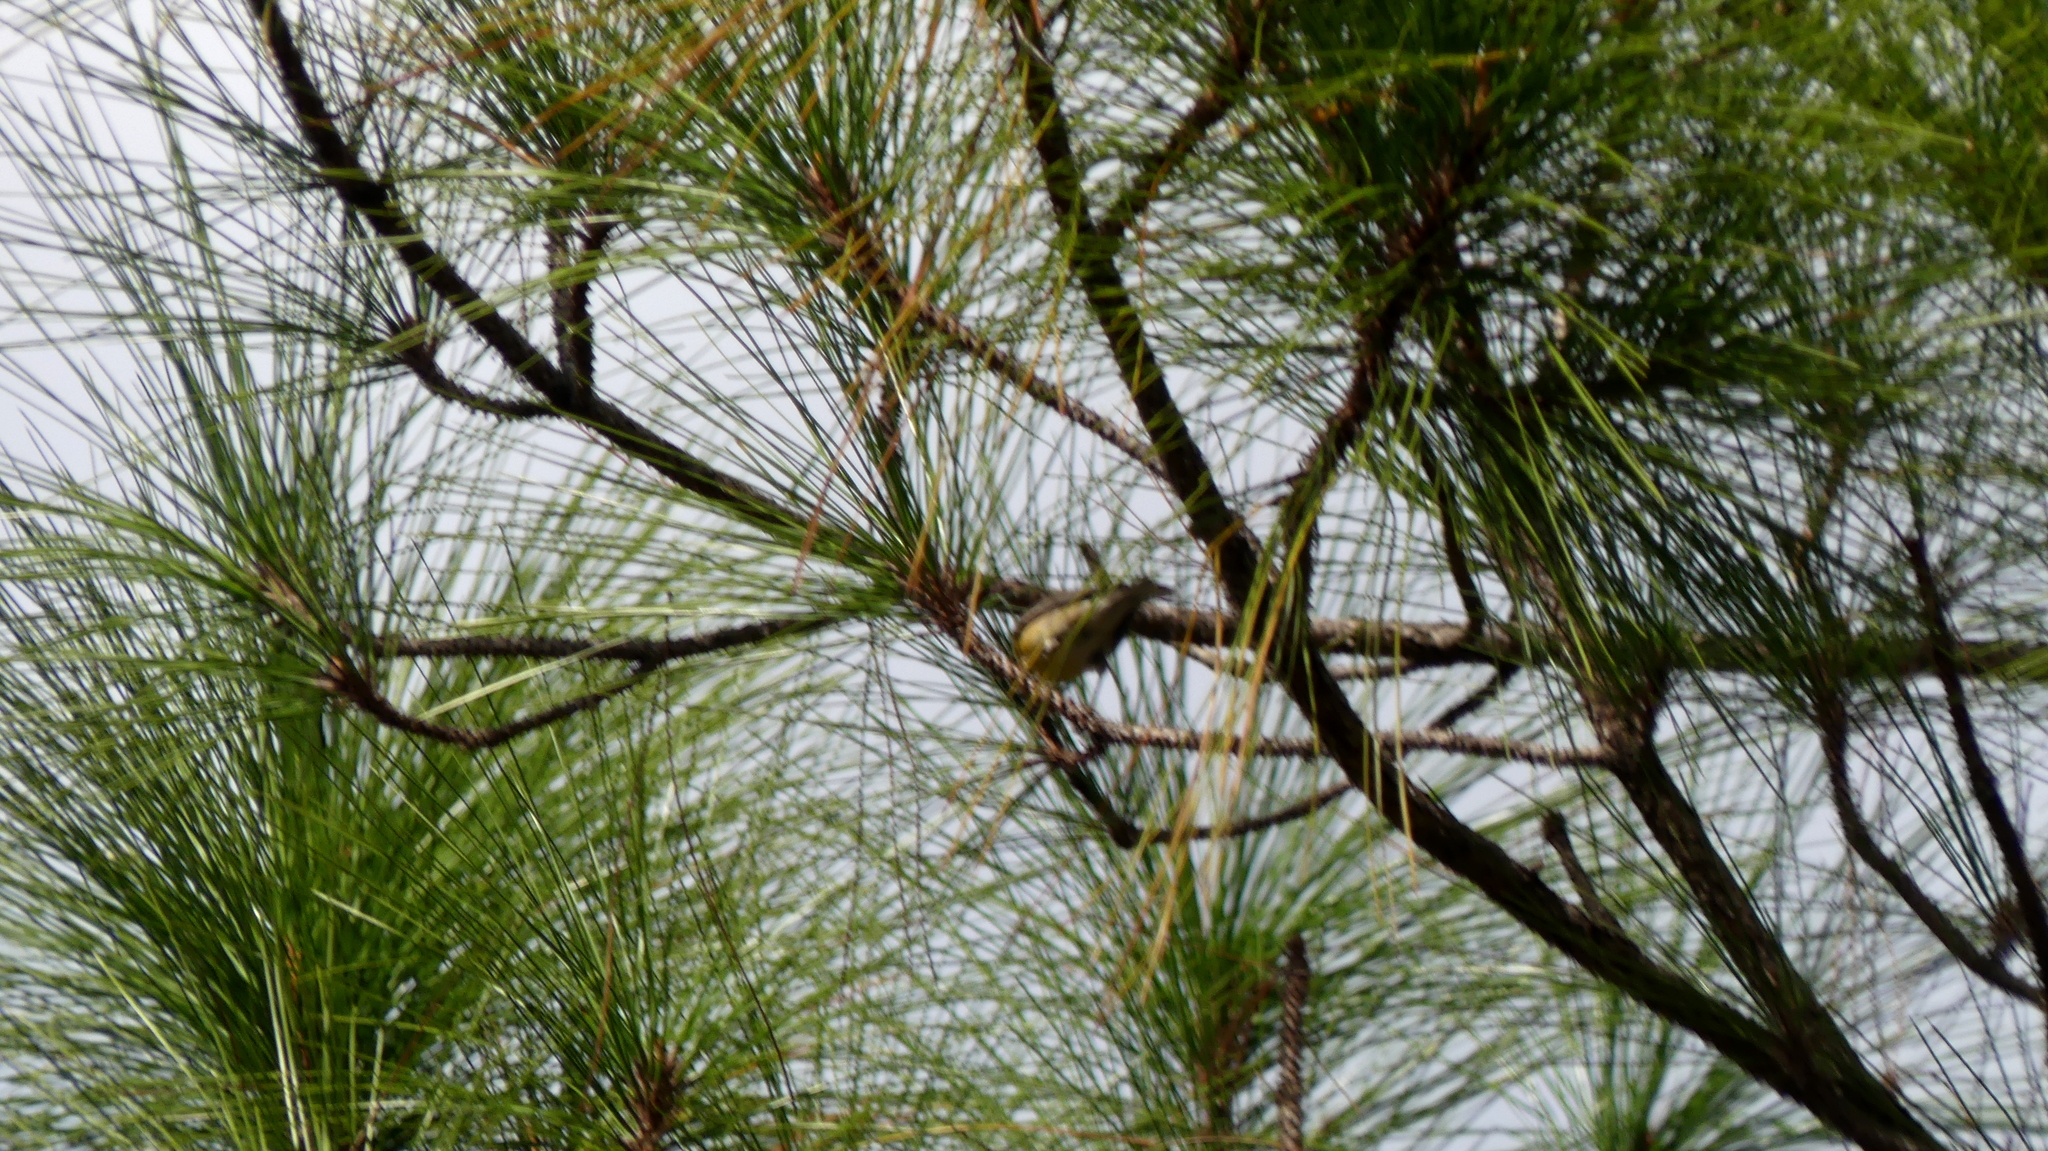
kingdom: Animalia
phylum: Chordata
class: Aves
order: Passeriformes
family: Parulidae
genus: Setophaga
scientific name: Setophaga pinus
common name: Pine warbler
